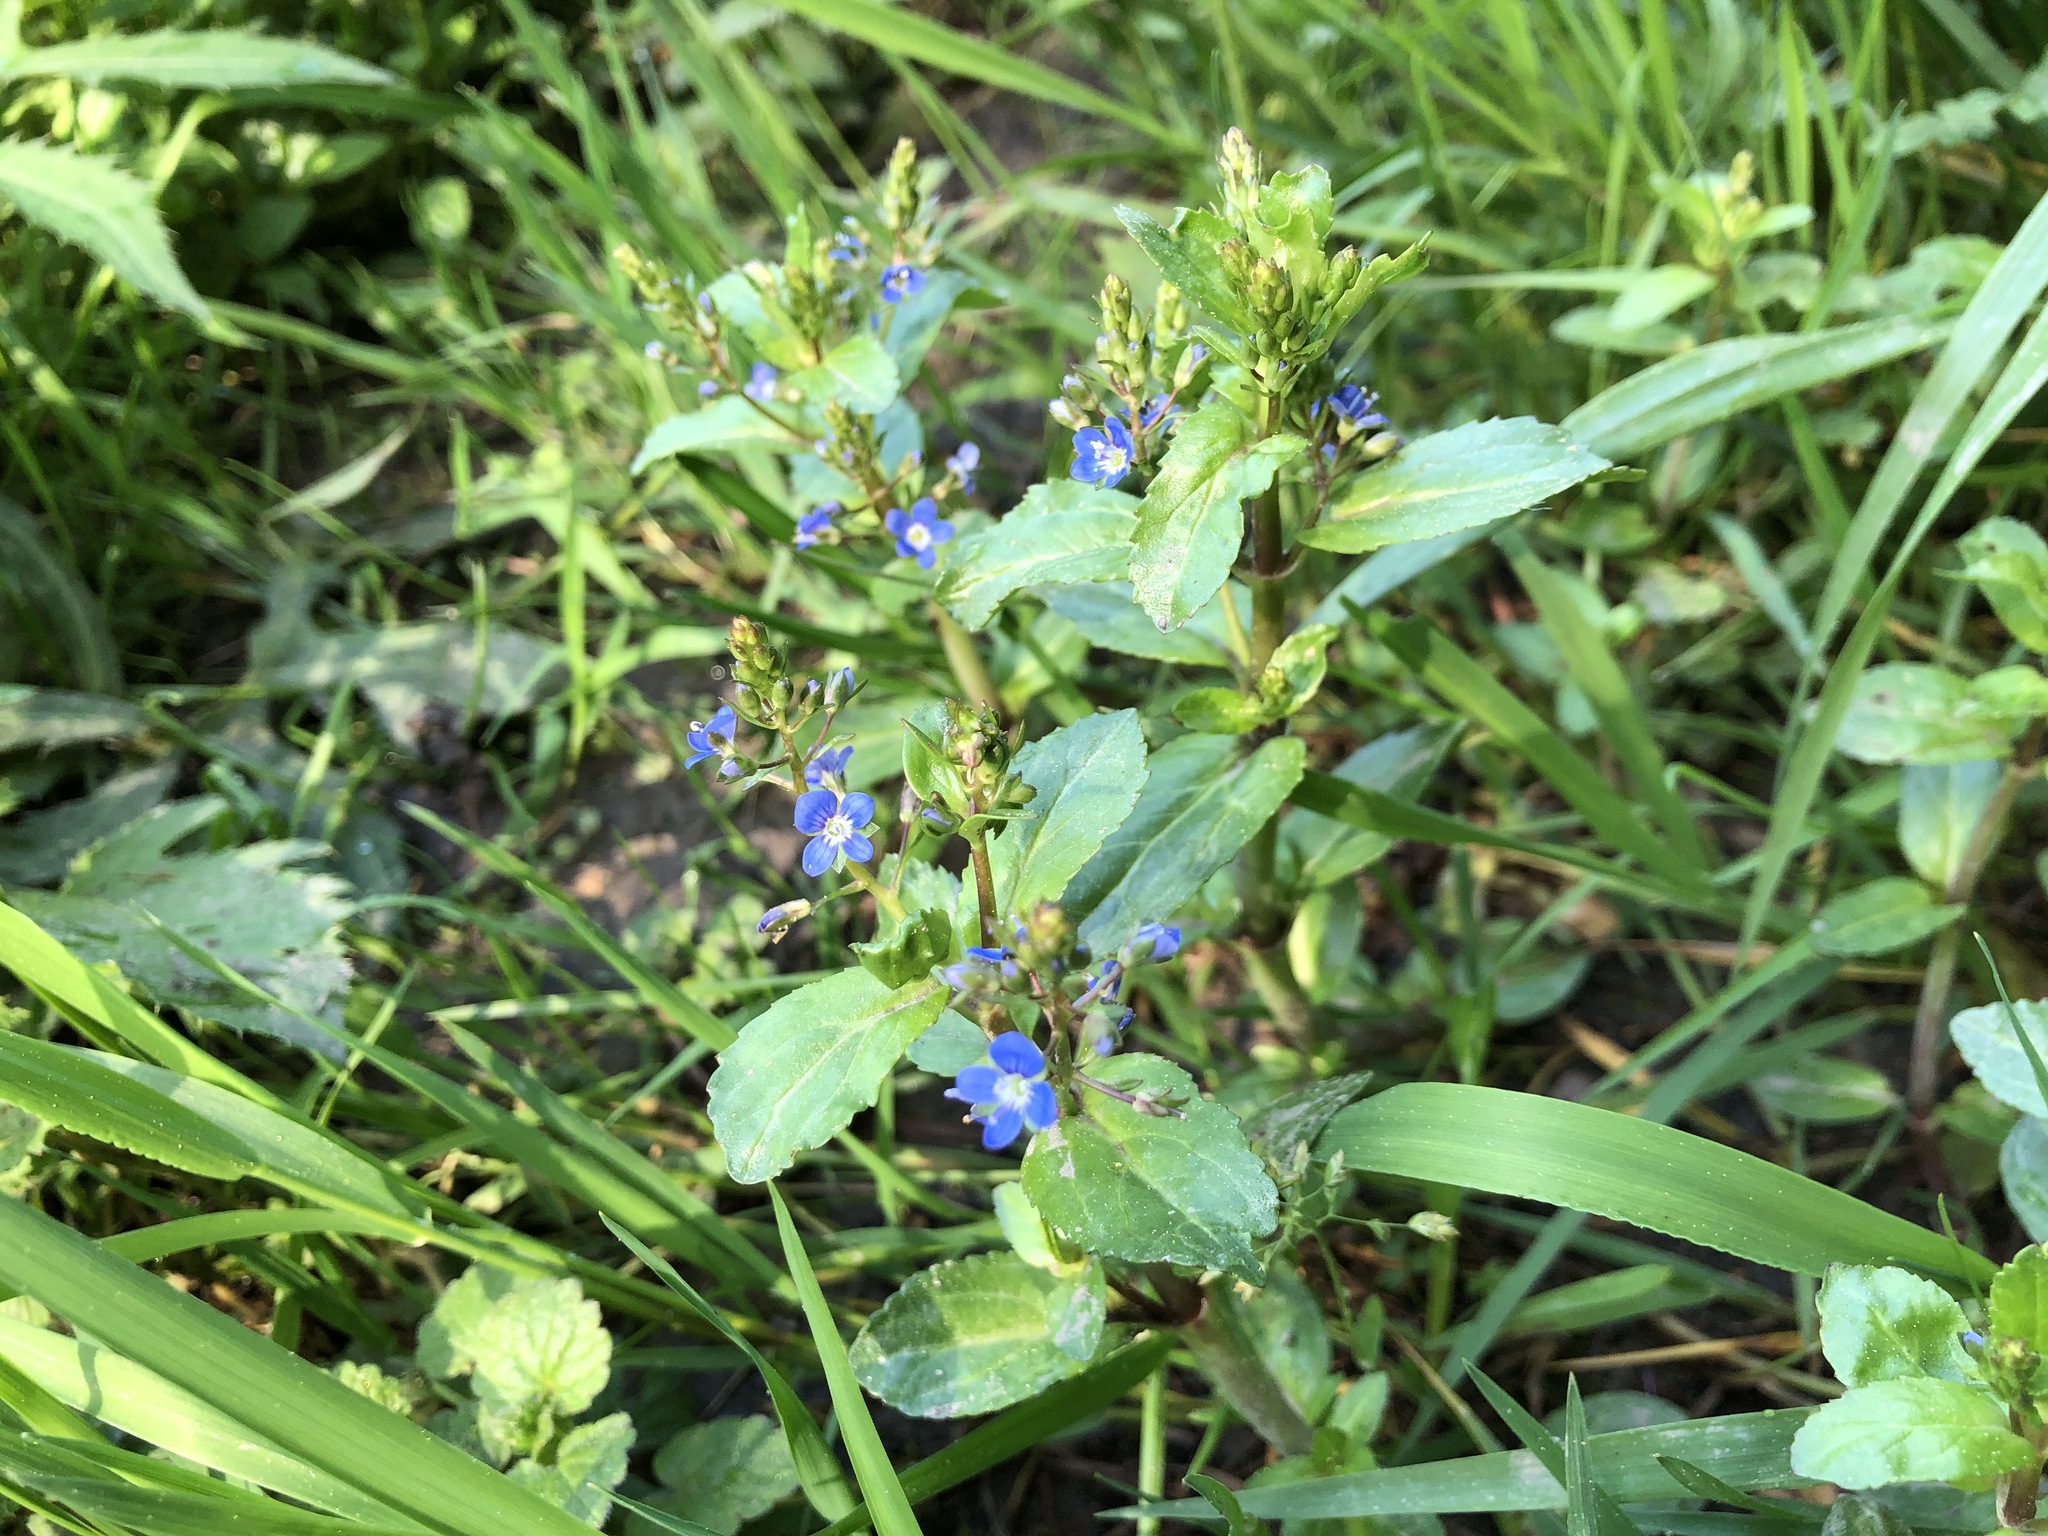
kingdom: Plantae
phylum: Tracheophyta
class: Magnoliopsida
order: Lamiales
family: Plantaginaceae
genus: Veronica
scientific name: Veronica beccabunga
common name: Brooklime
